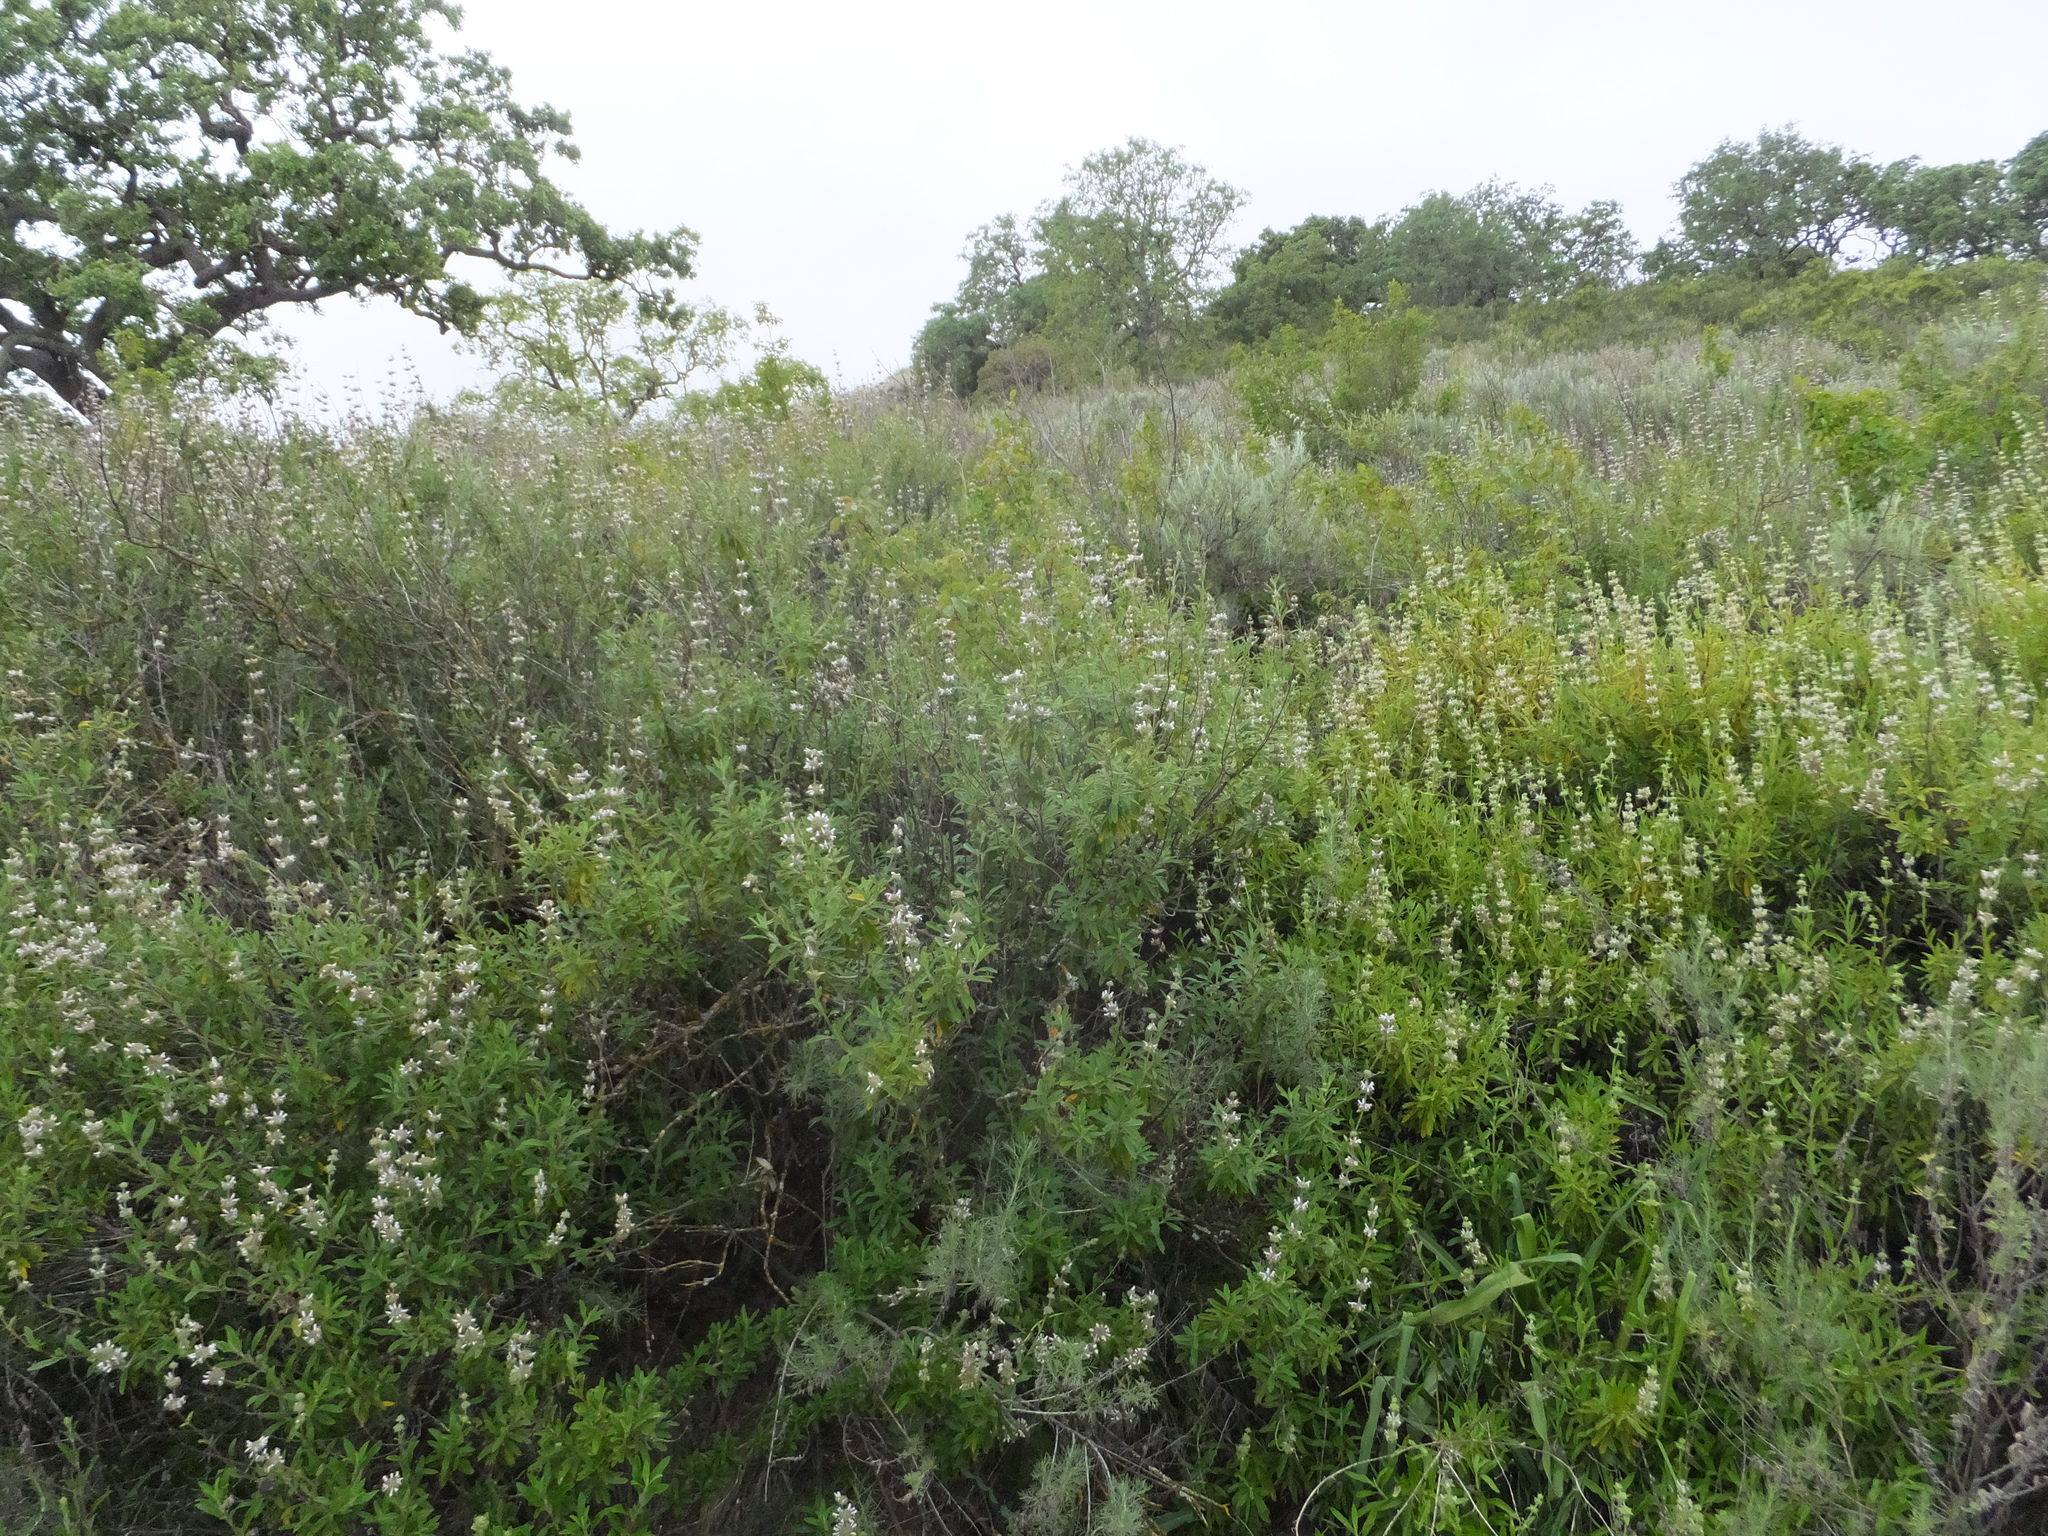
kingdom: Plantae
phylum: Tracheophyta
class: Magnoliopsida
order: Lamiales
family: Lamiaceae
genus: Salvia
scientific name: Salvia mellifera
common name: Black sage
